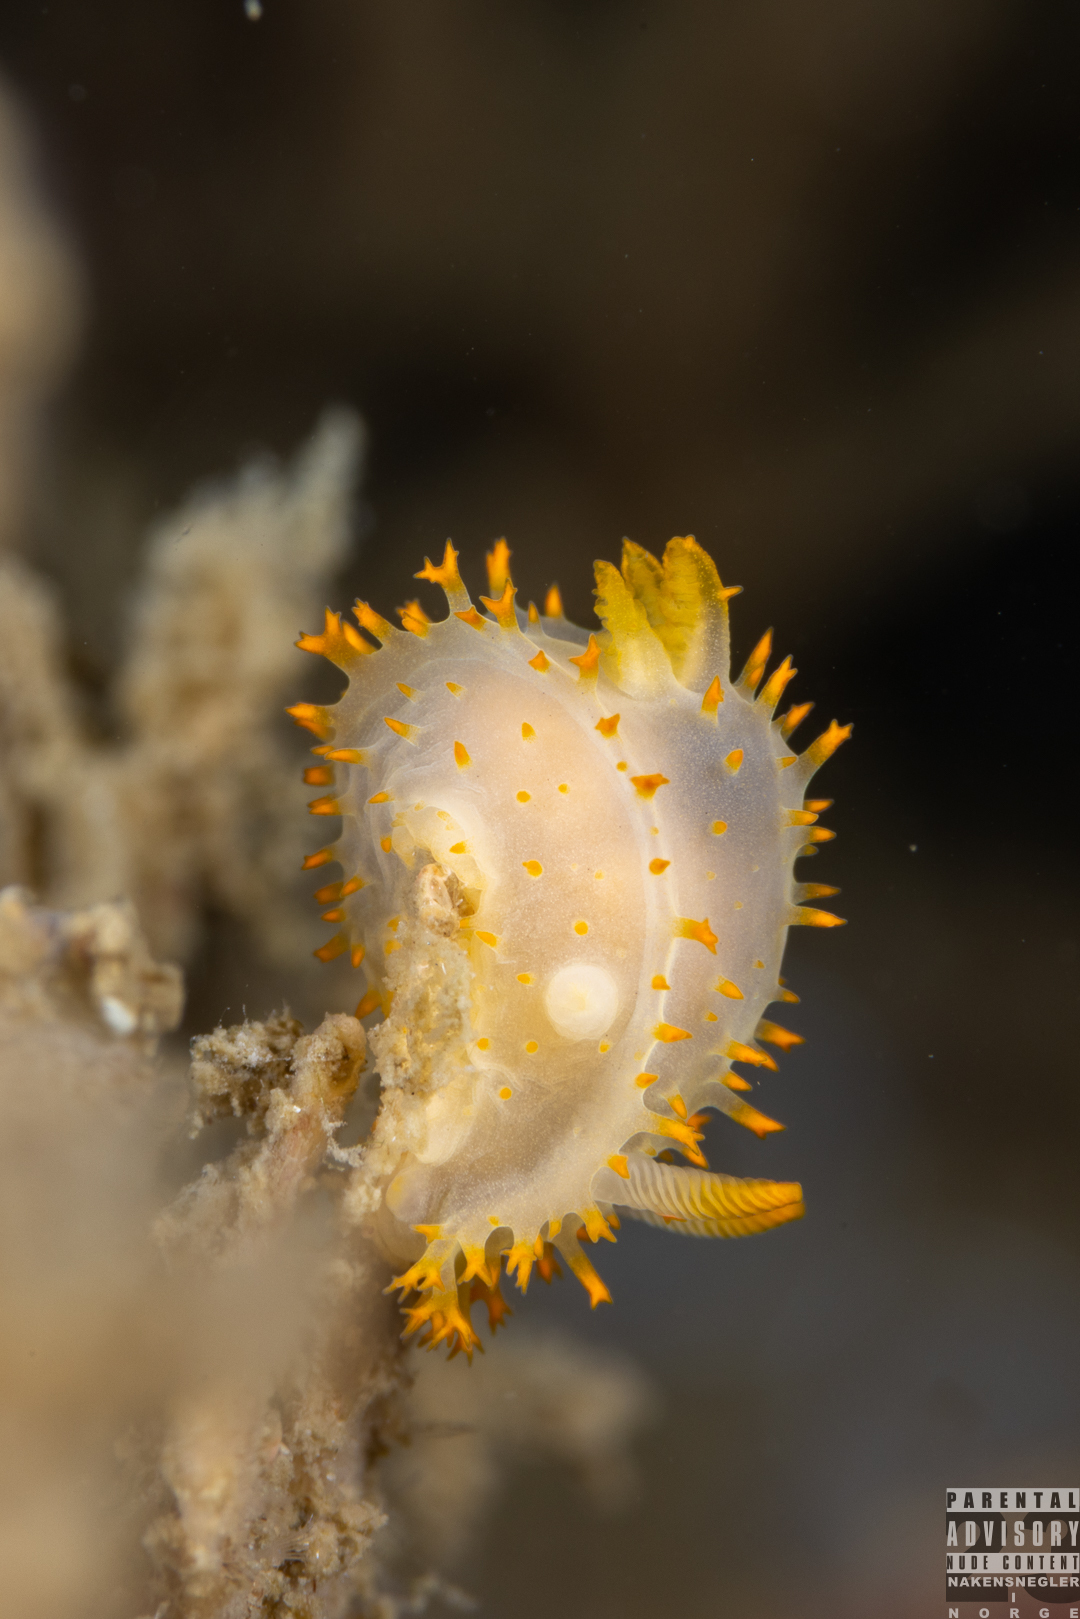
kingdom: Animalia
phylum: Mollusca
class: Gastropoda
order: Nudibranchia
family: Polyceridae
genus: Crimora
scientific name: Crimora papillata
